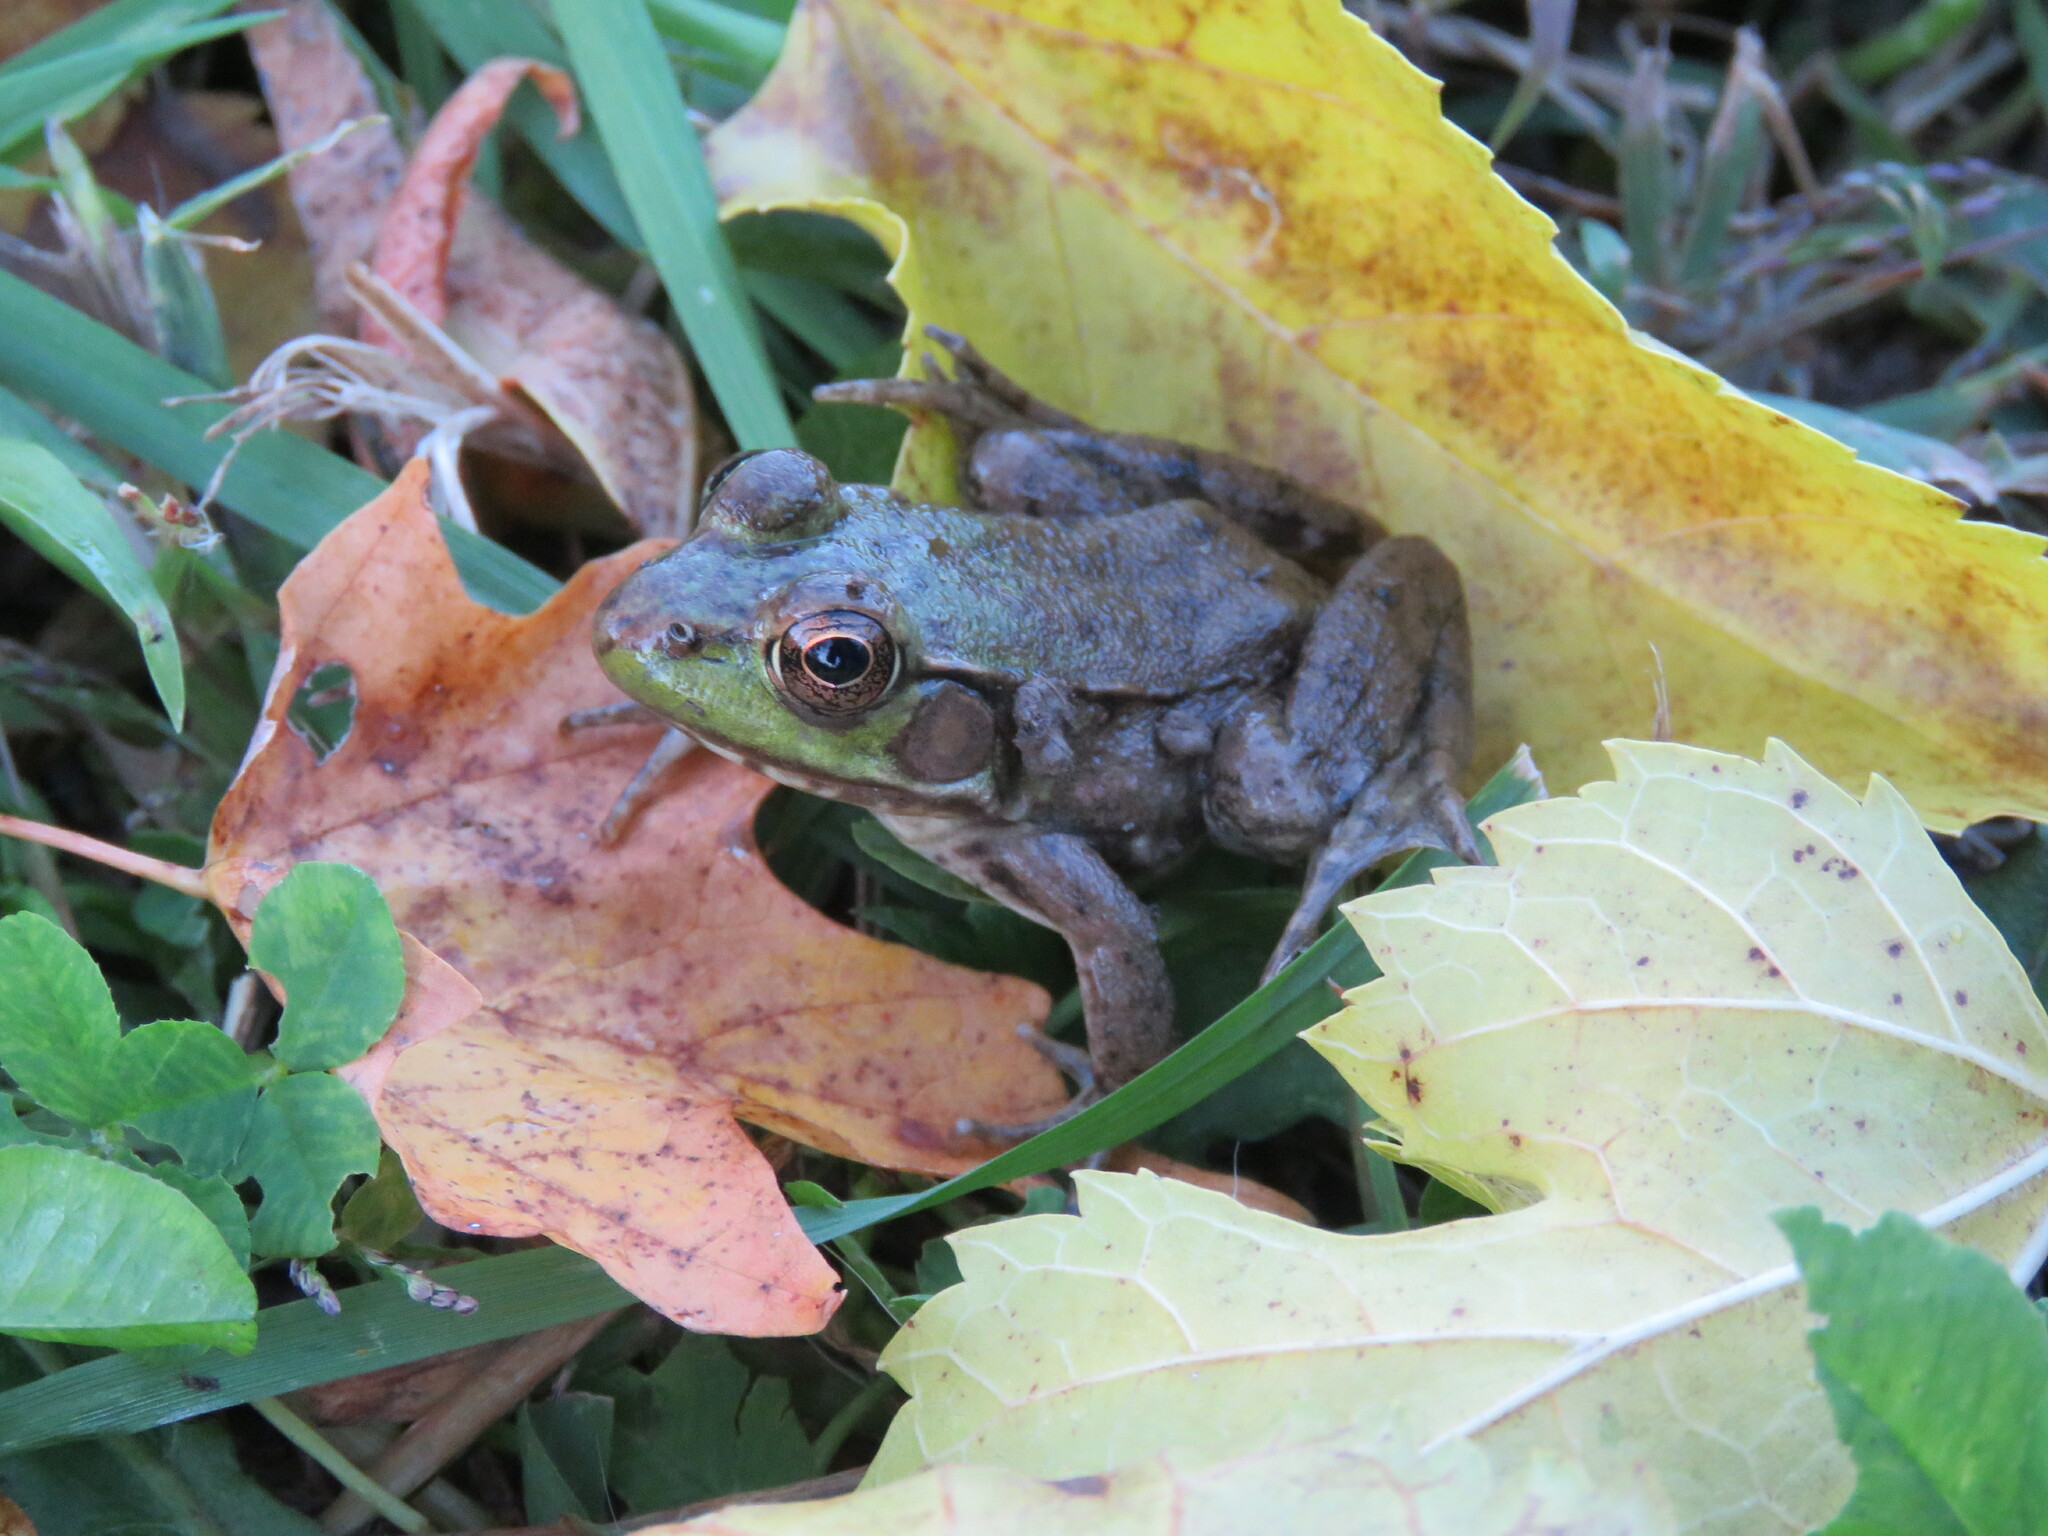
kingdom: Animalia
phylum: Chordata
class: Amphibia
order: Anura
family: Ranidae
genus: Lithobates
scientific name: Lithobates clamitans
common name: Green frog
